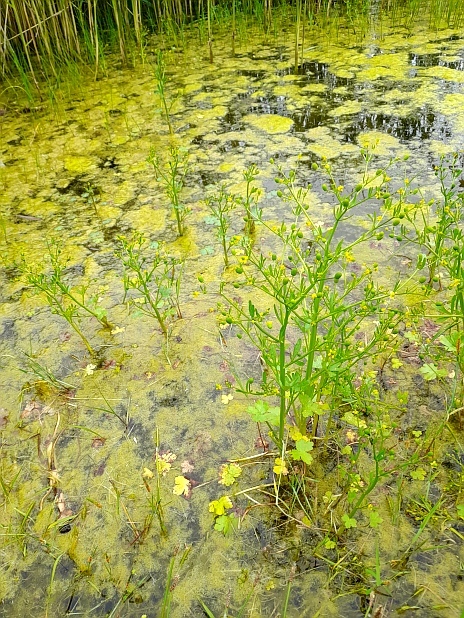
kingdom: Plantae
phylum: Tracheophyta
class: Magnoliopsida
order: Ranunculales
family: Ranunculaceae
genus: Ranunculus
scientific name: Ranunculus sceleratus
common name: Celery-leaved buttercup
